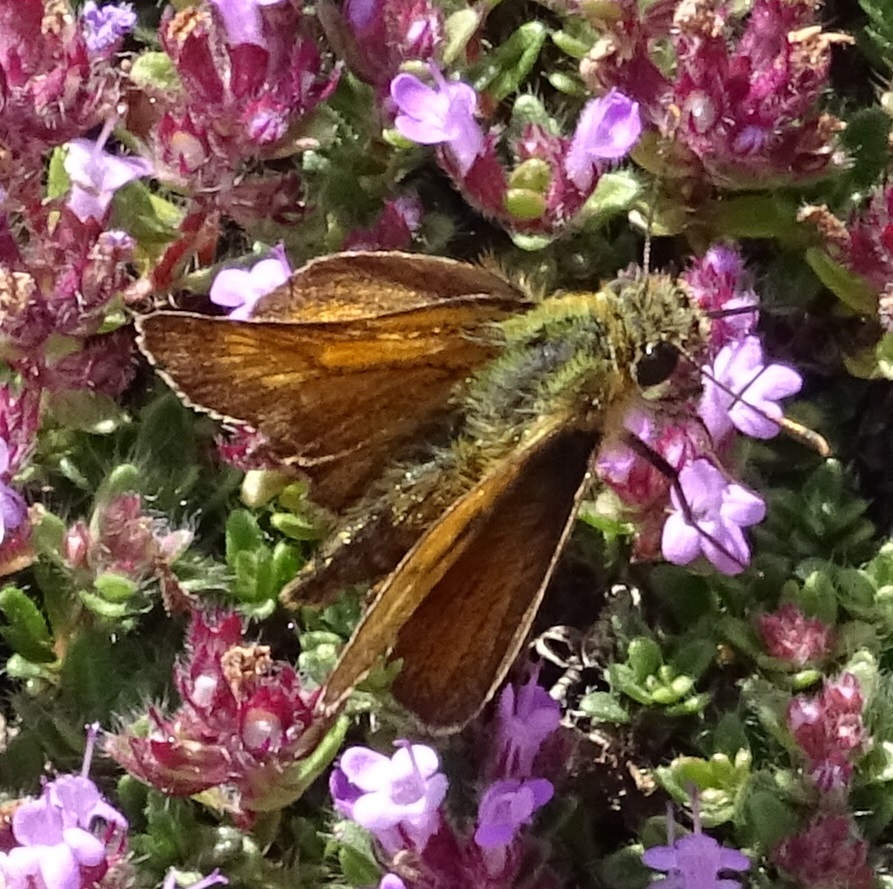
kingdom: Animalia
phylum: Arthropoda
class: Insecta
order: Lepidoptera
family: Hesperiidae
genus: Thymelicus
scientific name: Thymelicus acteon
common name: Lulworth skipper
